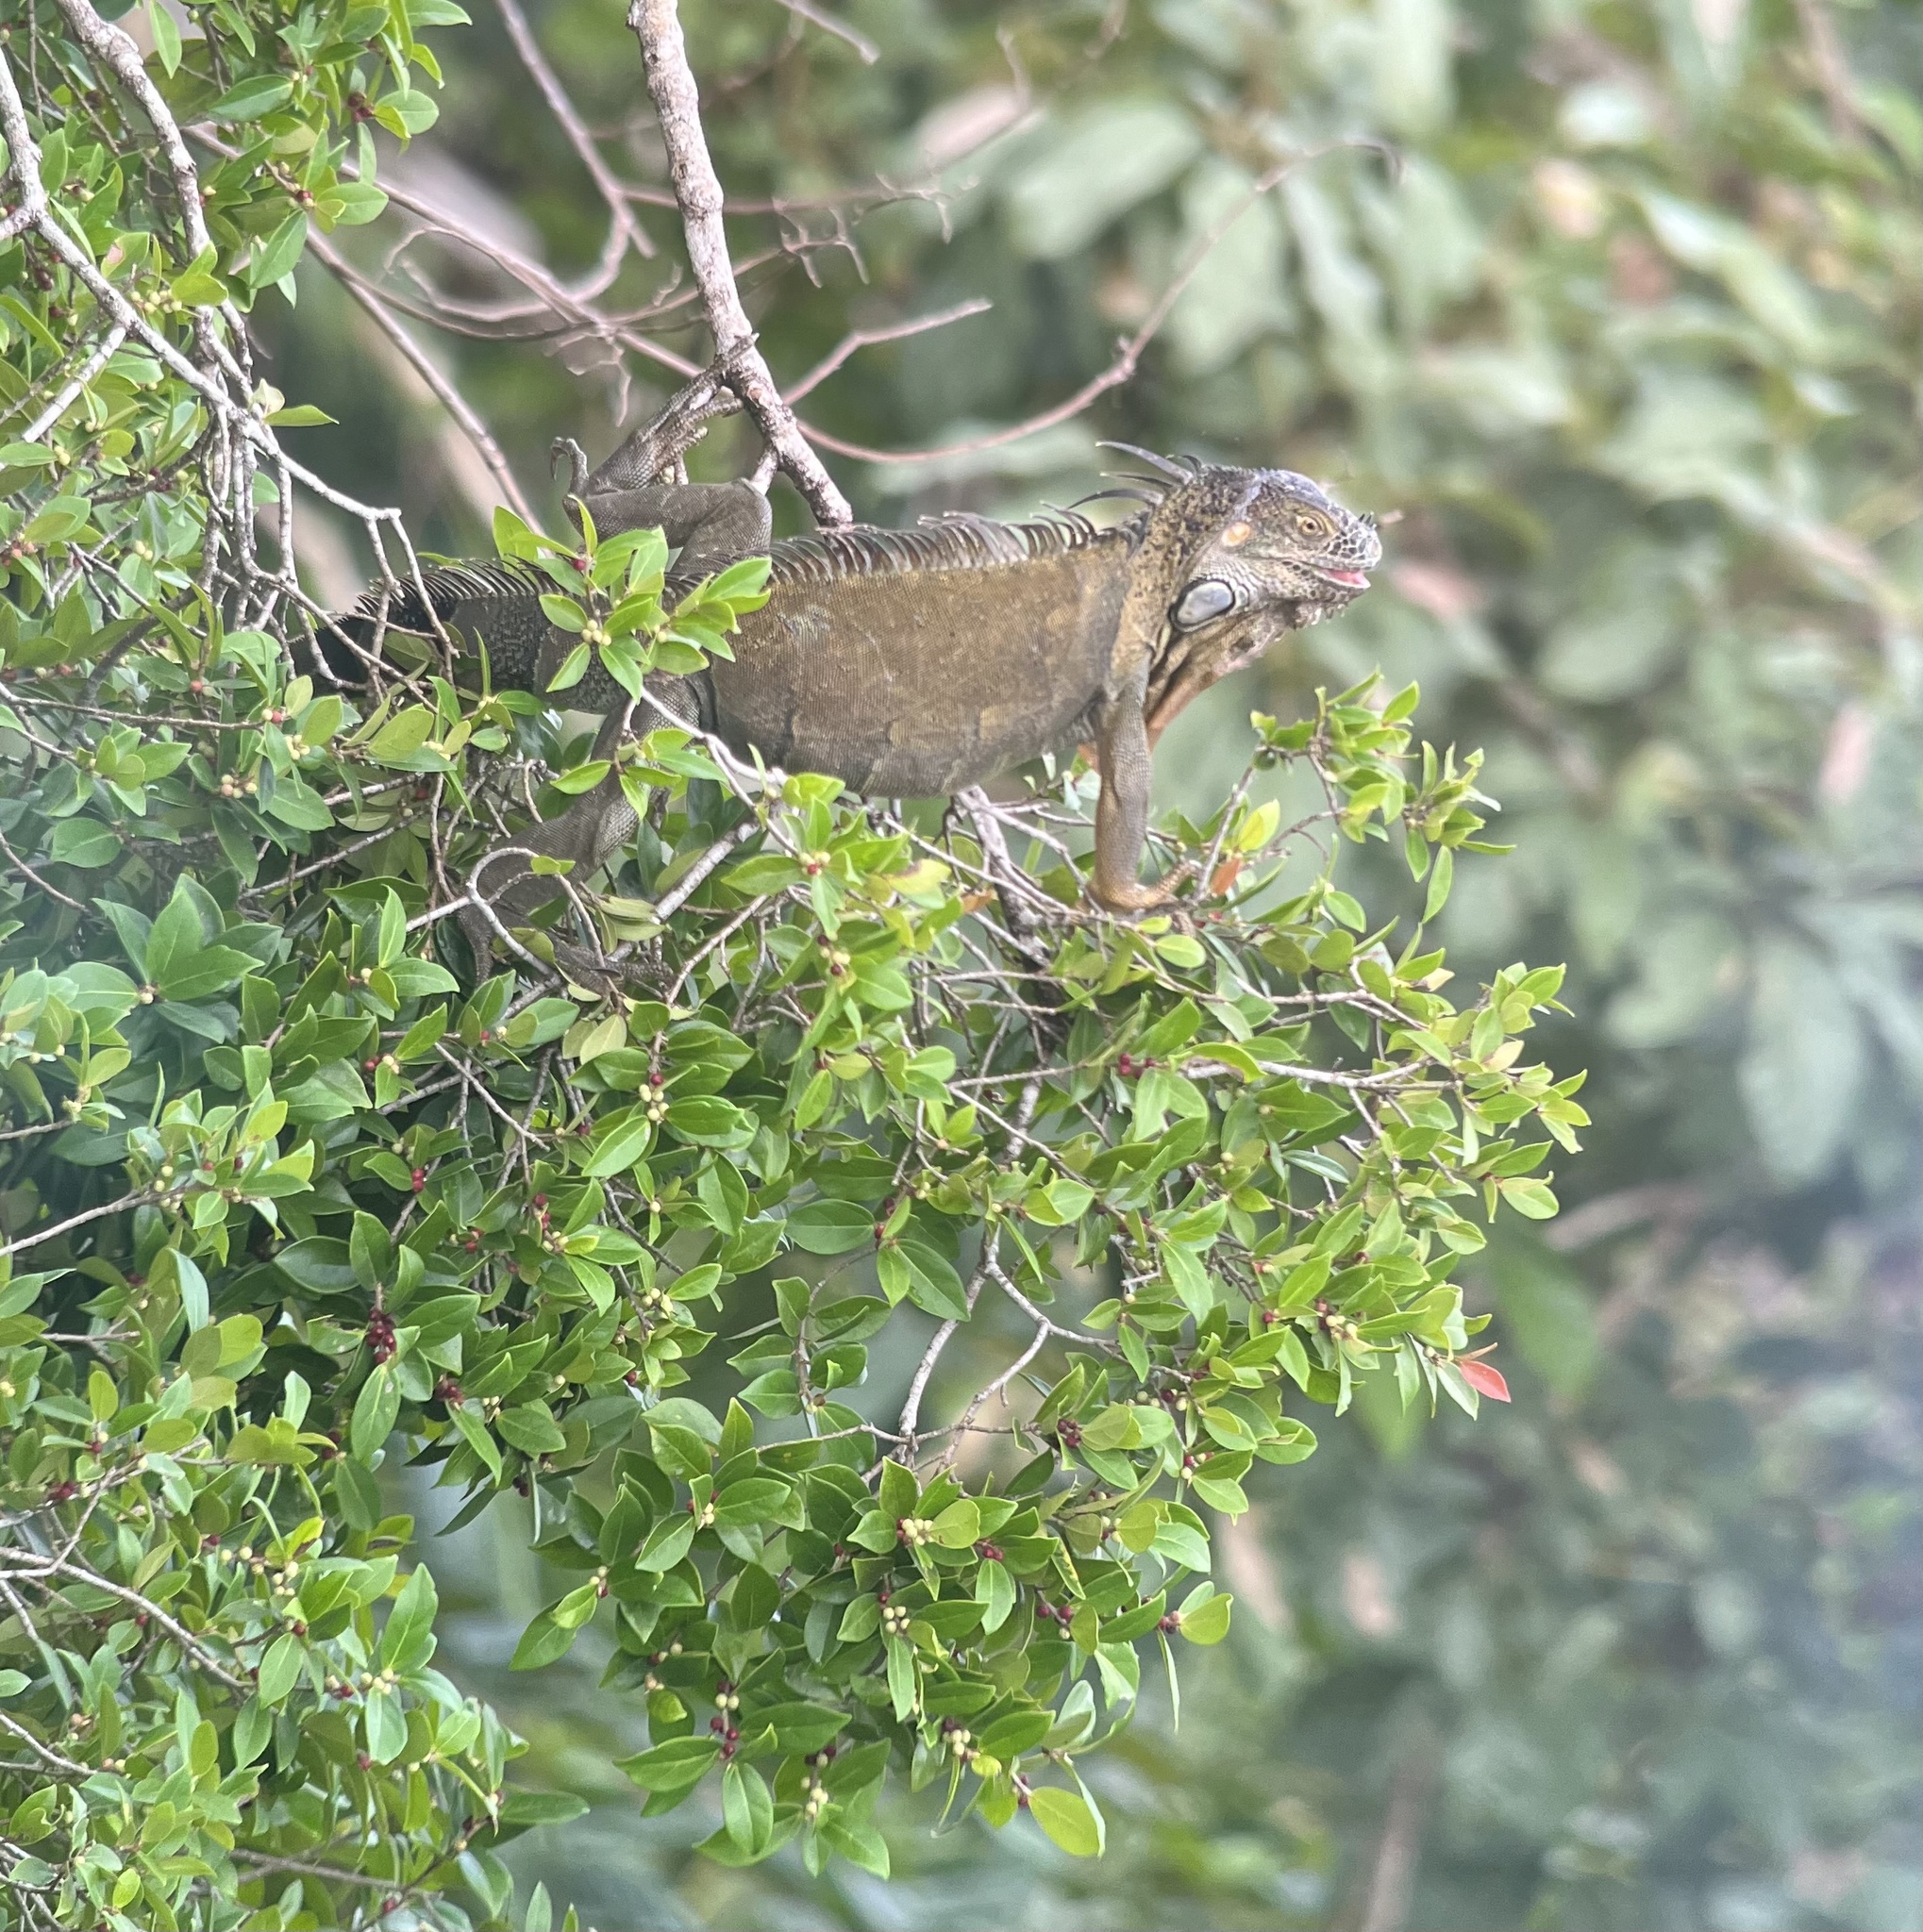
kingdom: Animalia
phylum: Chordata
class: Squamata
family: Iguanidae
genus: Iguana
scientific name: Iguana iguana
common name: Green iguana
